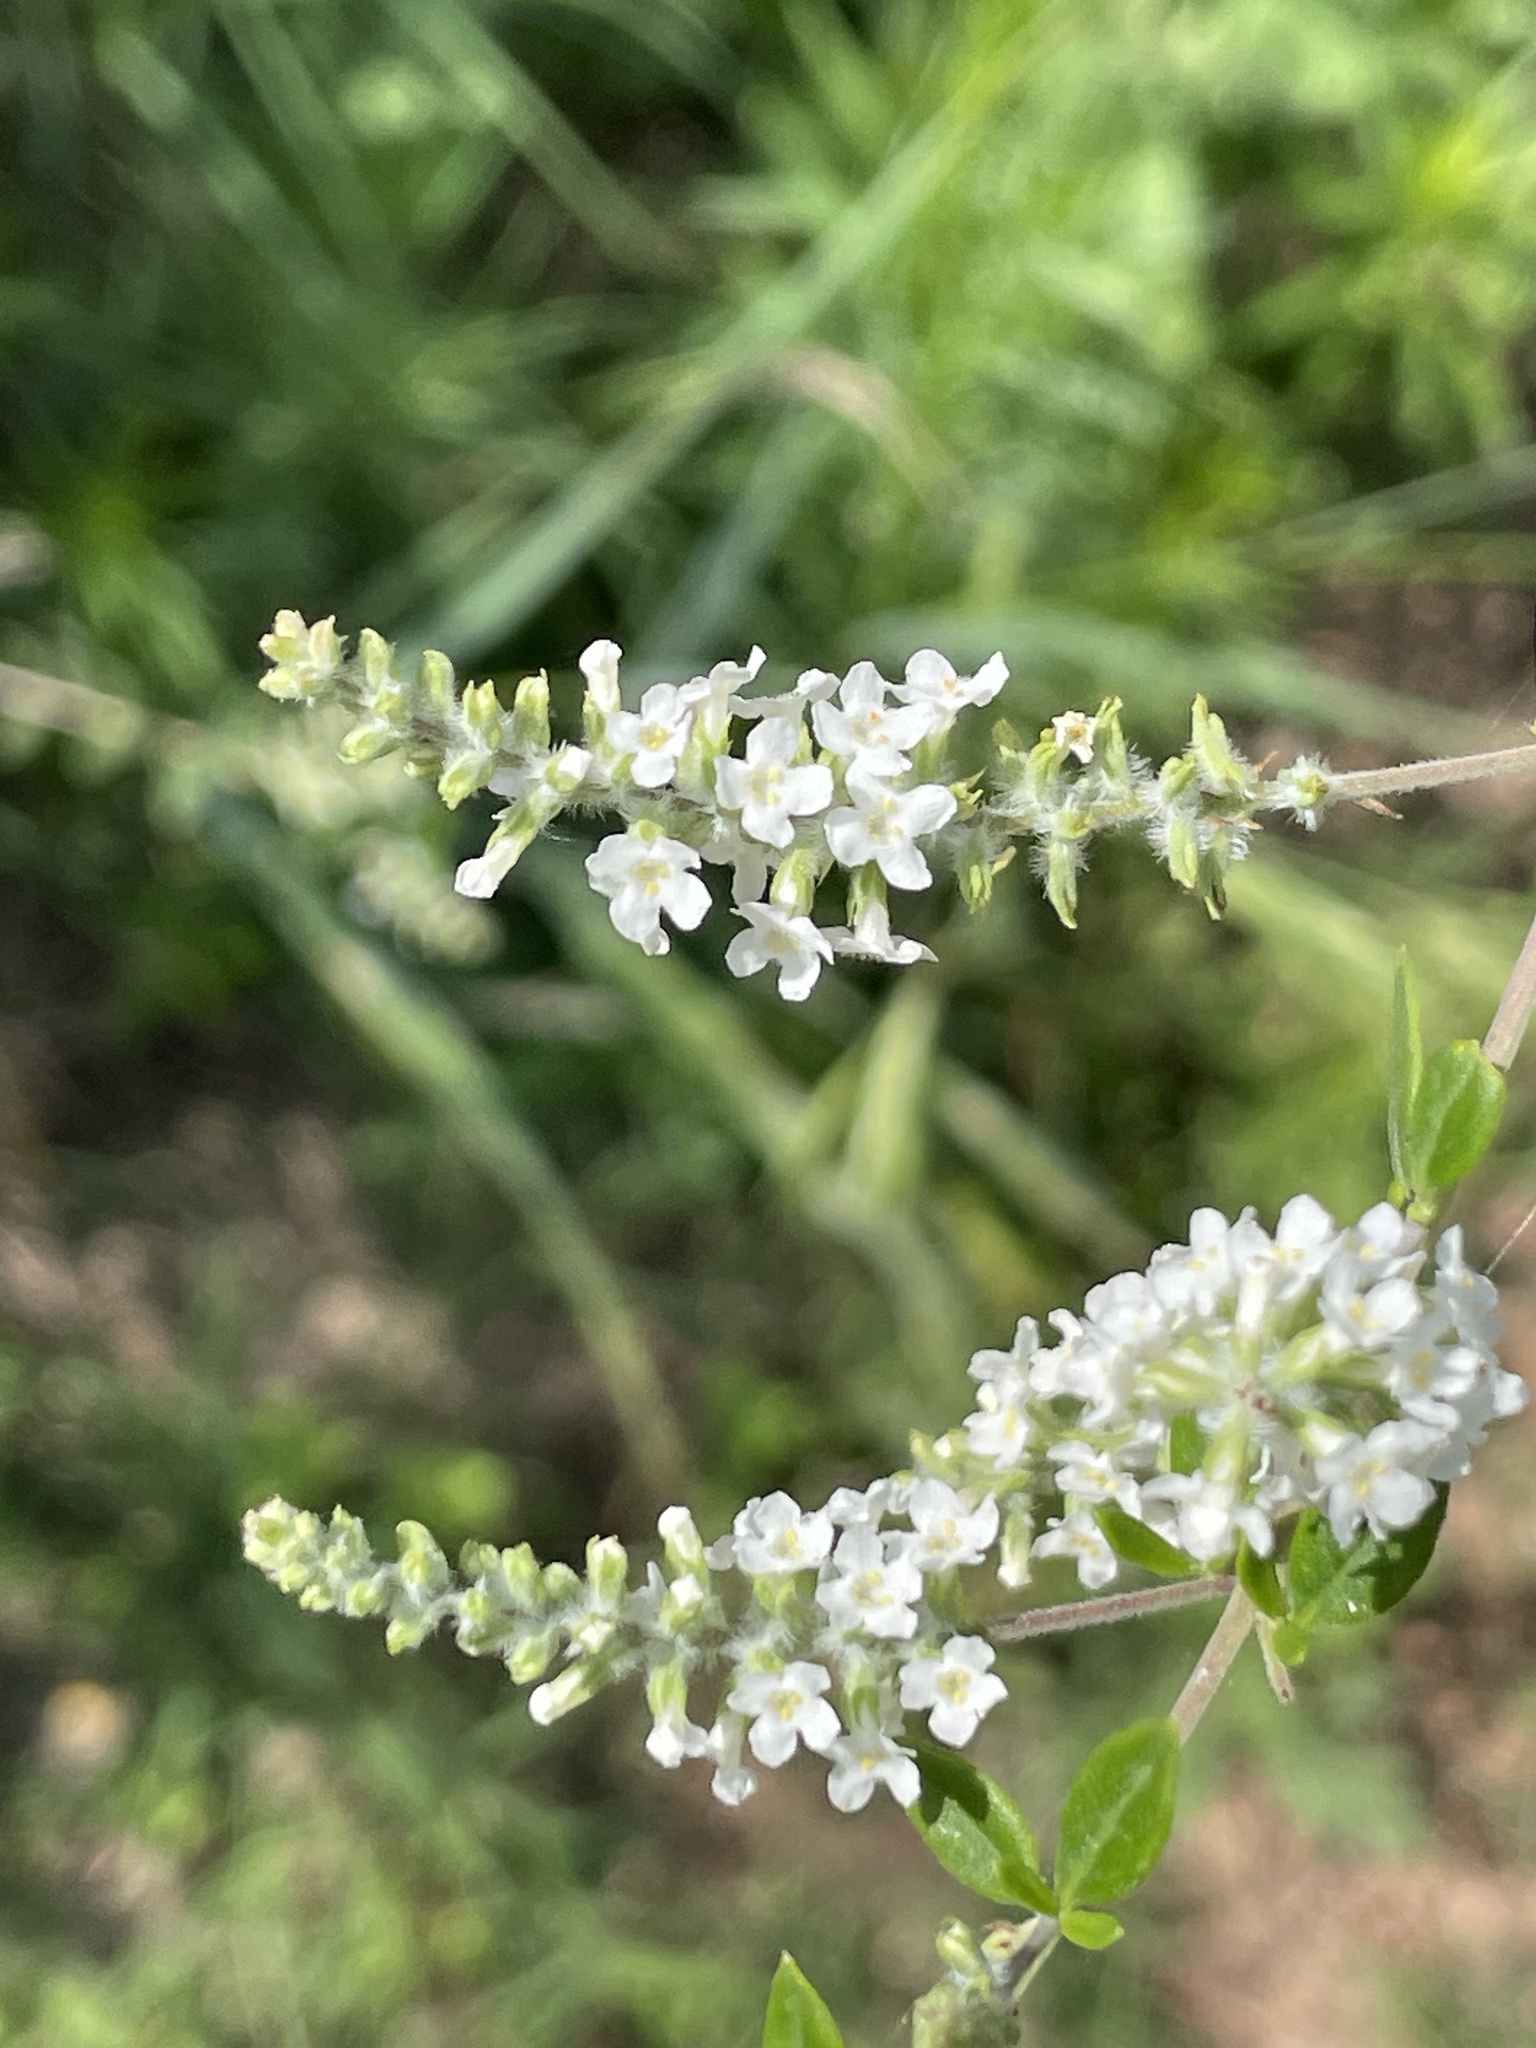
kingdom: Plantae
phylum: Tracheophyta
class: Magnoliopsida
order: Lamiales
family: Verbenaceae
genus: Aloysia
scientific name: Aloysia gratissima
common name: Common bee-brush
